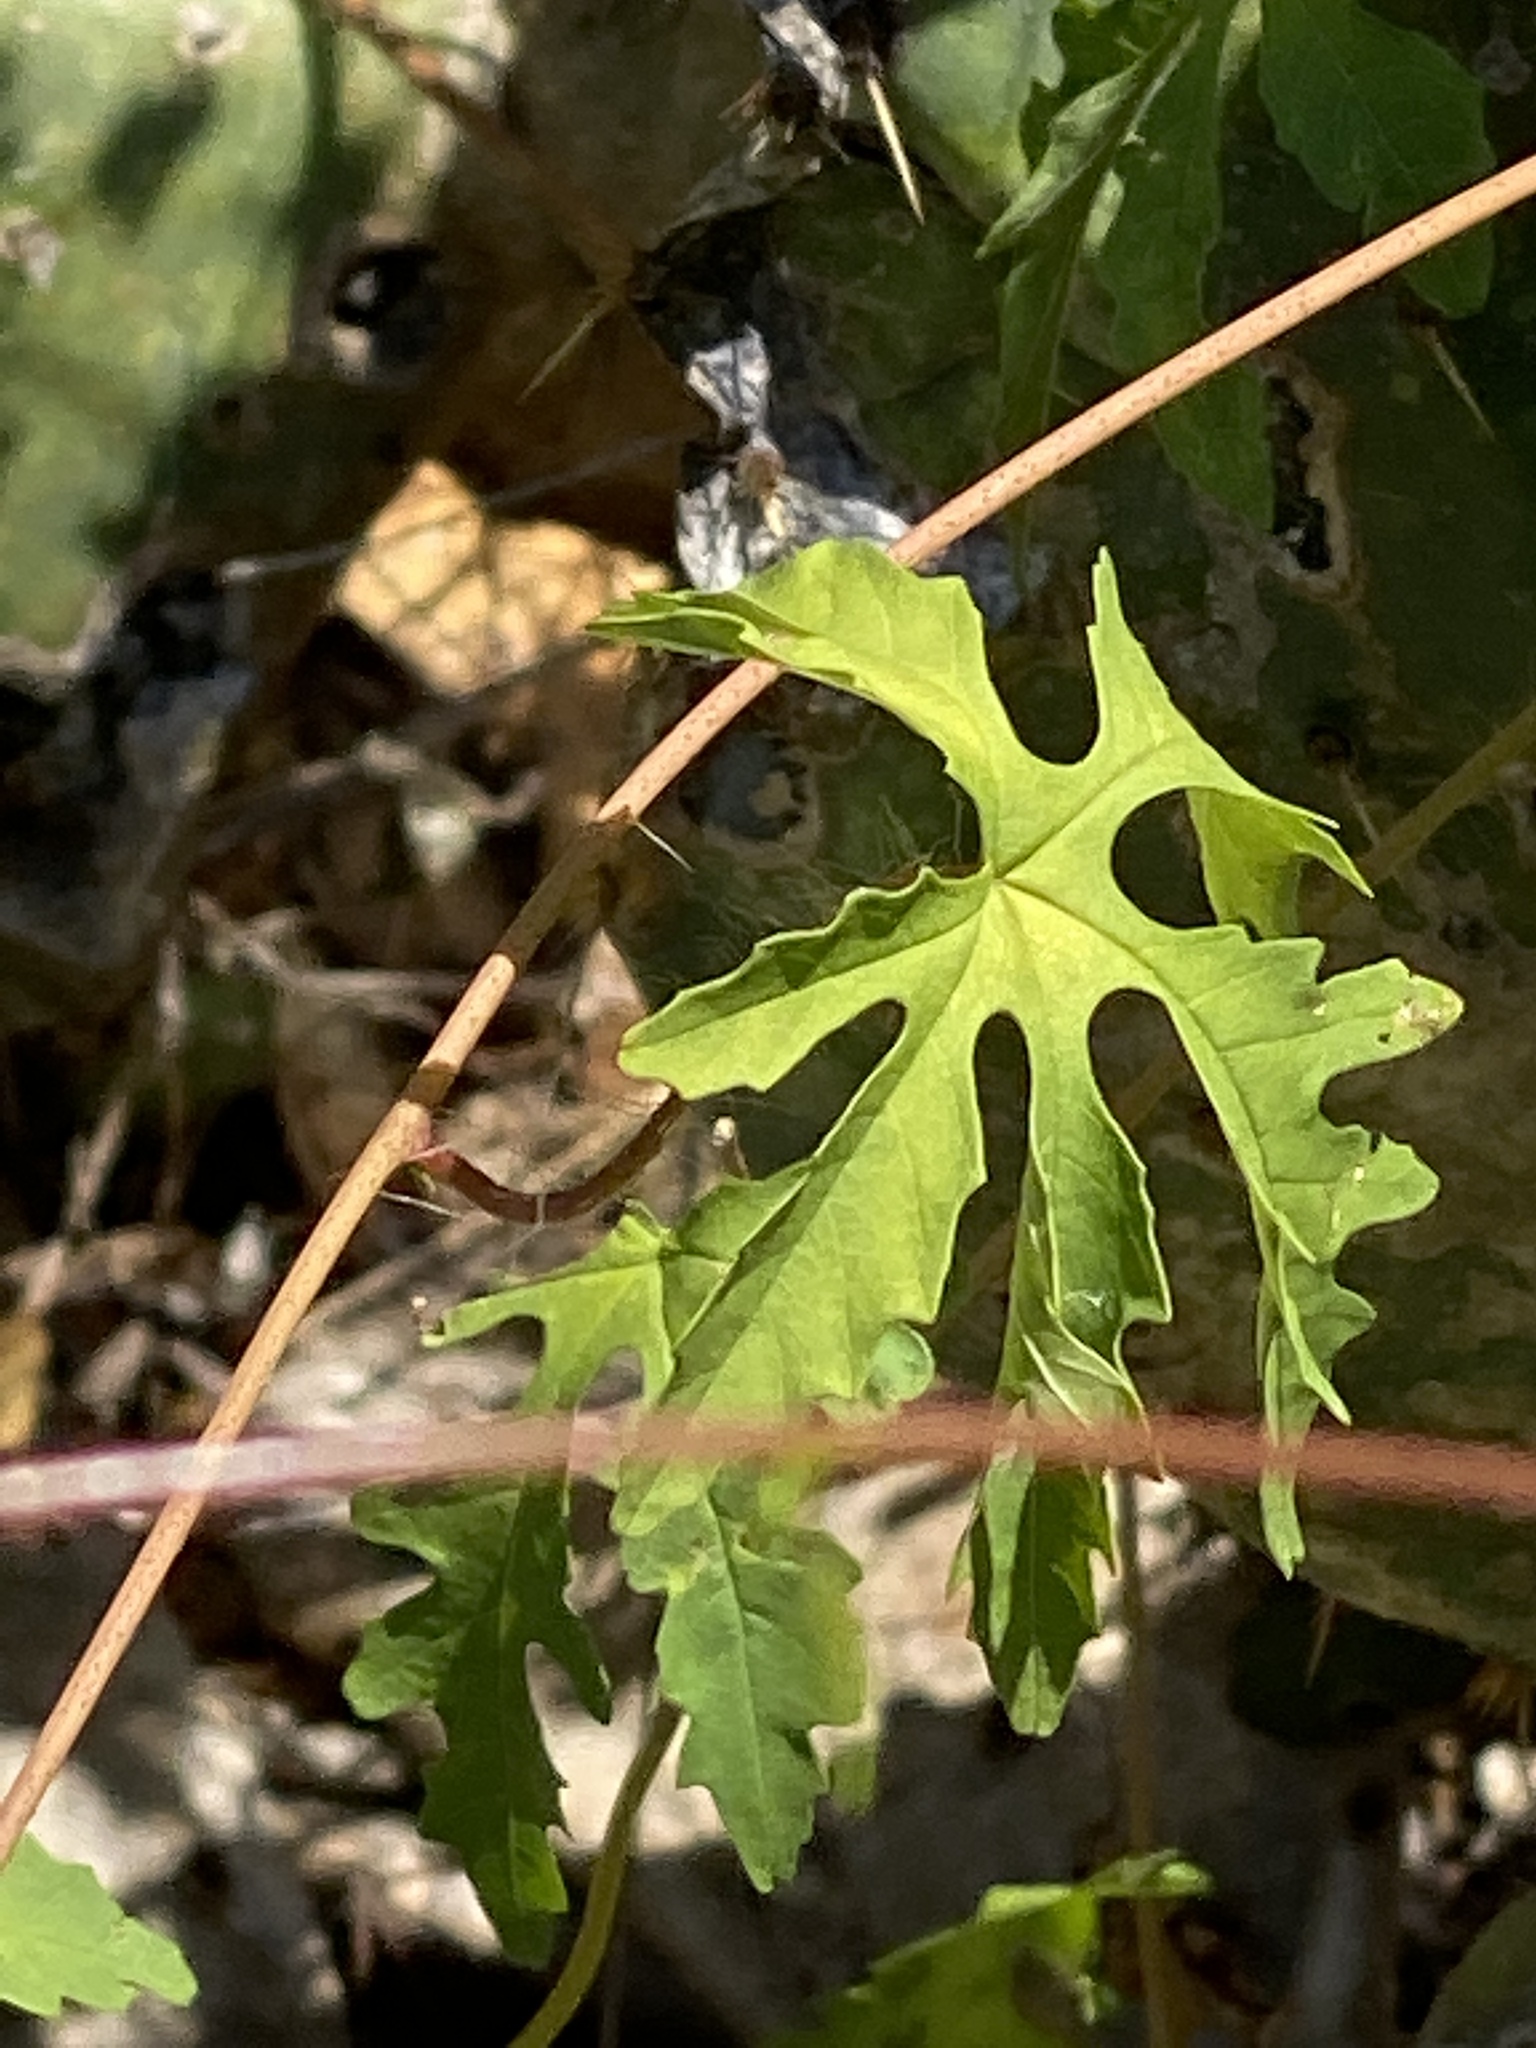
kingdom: Plantae
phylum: Tracheophyta
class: Magnoliopsida
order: Solanales
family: Convolvulaceae
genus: Distimake
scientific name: Distimake dissectus
